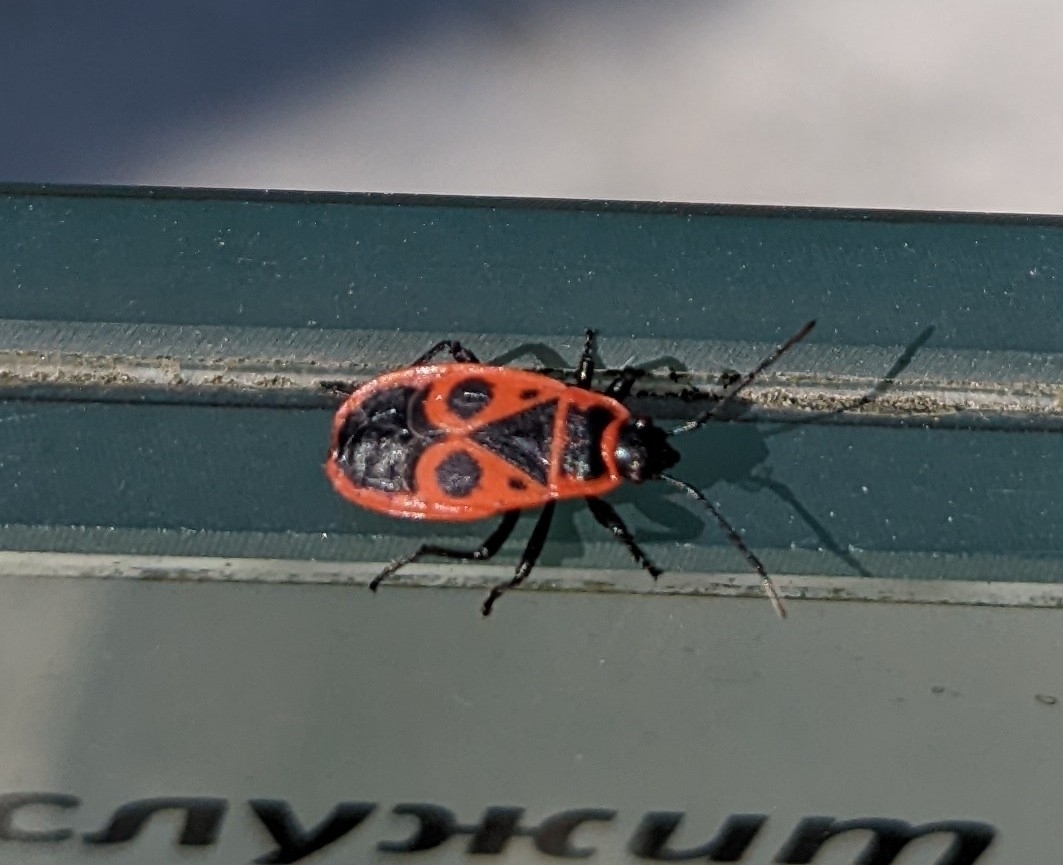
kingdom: Animalia
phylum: Arthropoda
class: Insecta
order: Hemiptera
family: Pyrrhocoridae
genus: Pyrrhocoris
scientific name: Pyrrhocoris apterus
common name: Firebug
